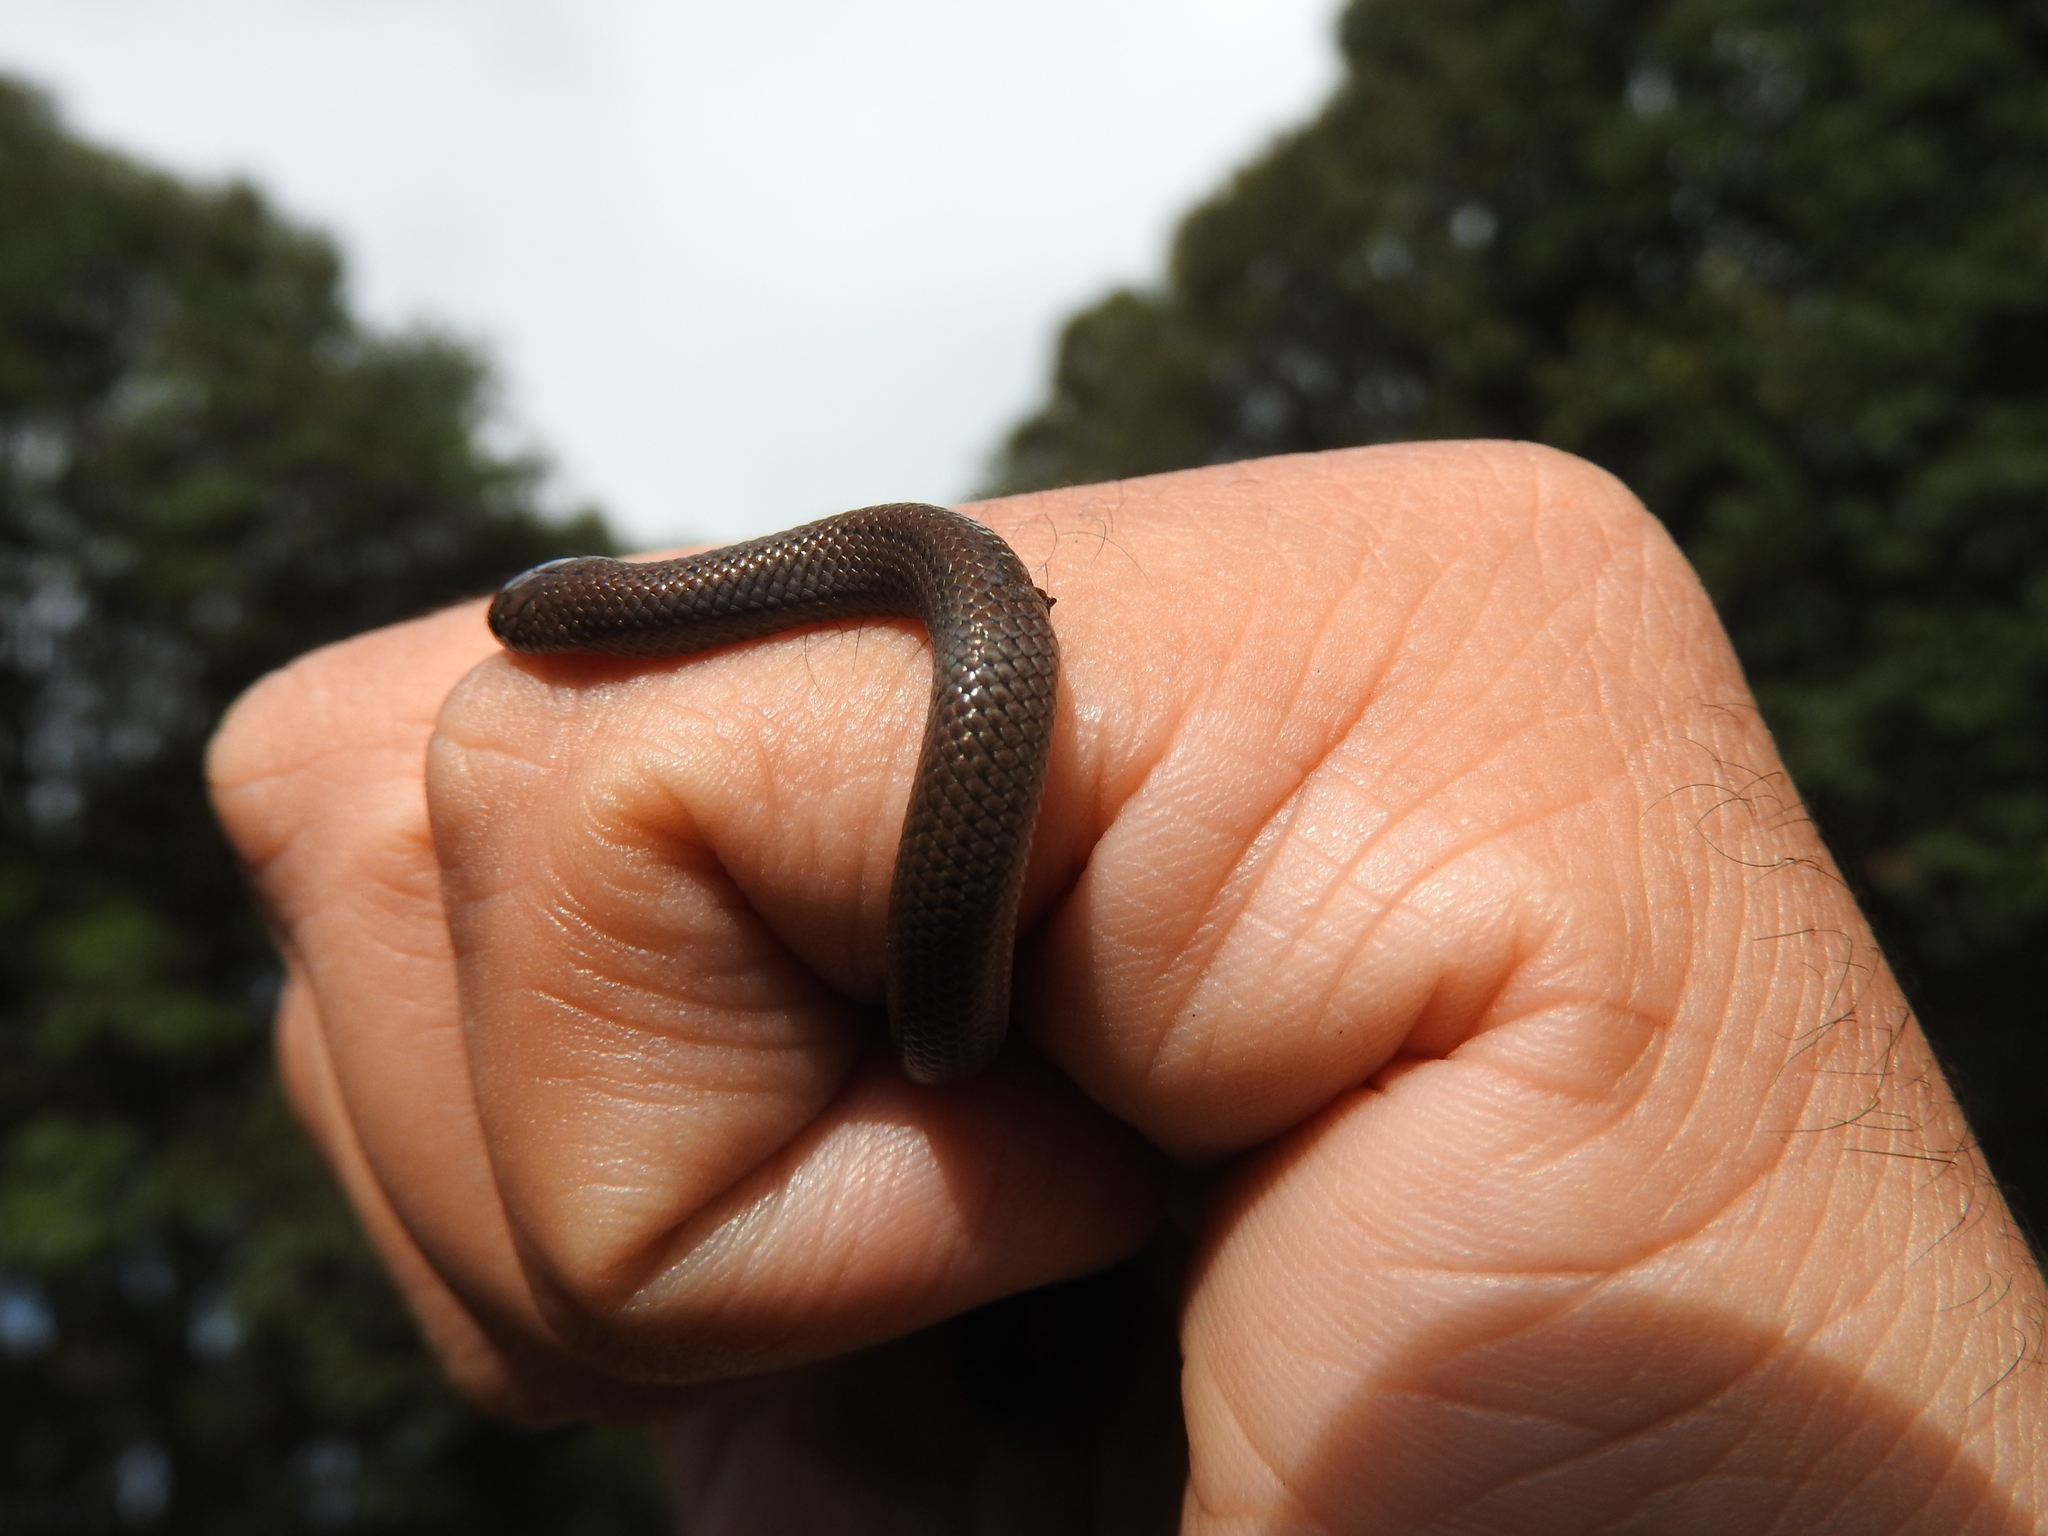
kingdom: Animalia
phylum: Chordata
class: Squamata
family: Colubridae
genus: Conopsis
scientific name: Conopsis lineata
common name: Lined tolucan earthsnake
